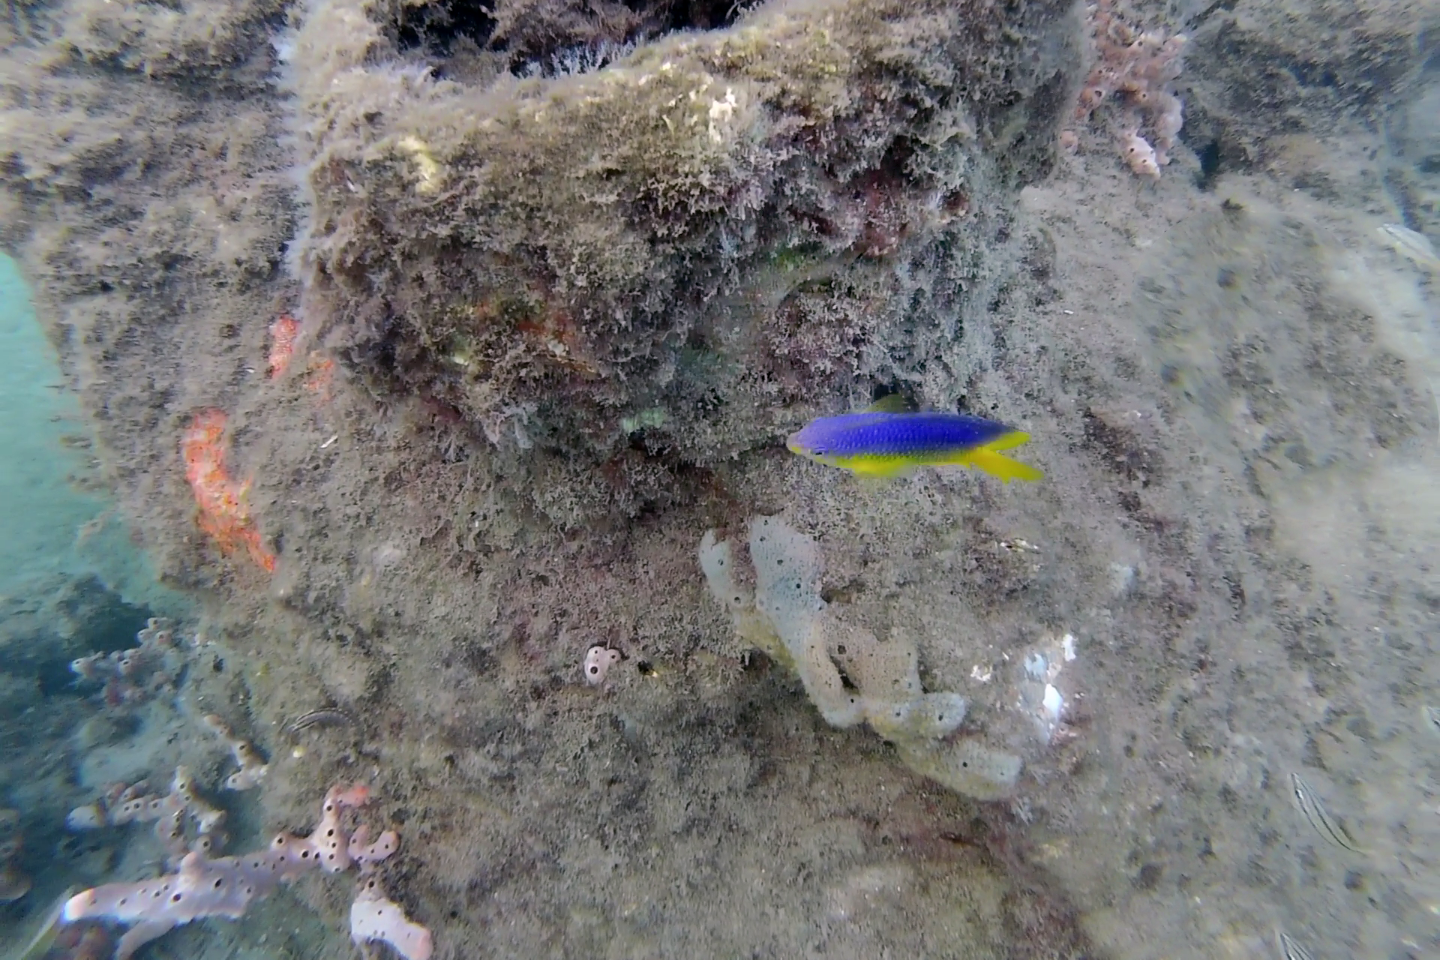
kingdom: Animalia
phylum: Chordata
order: Perciformes
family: Pomacentridae
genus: Stegastes
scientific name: Stegastes xanthurus
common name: Cocoa damselfish
